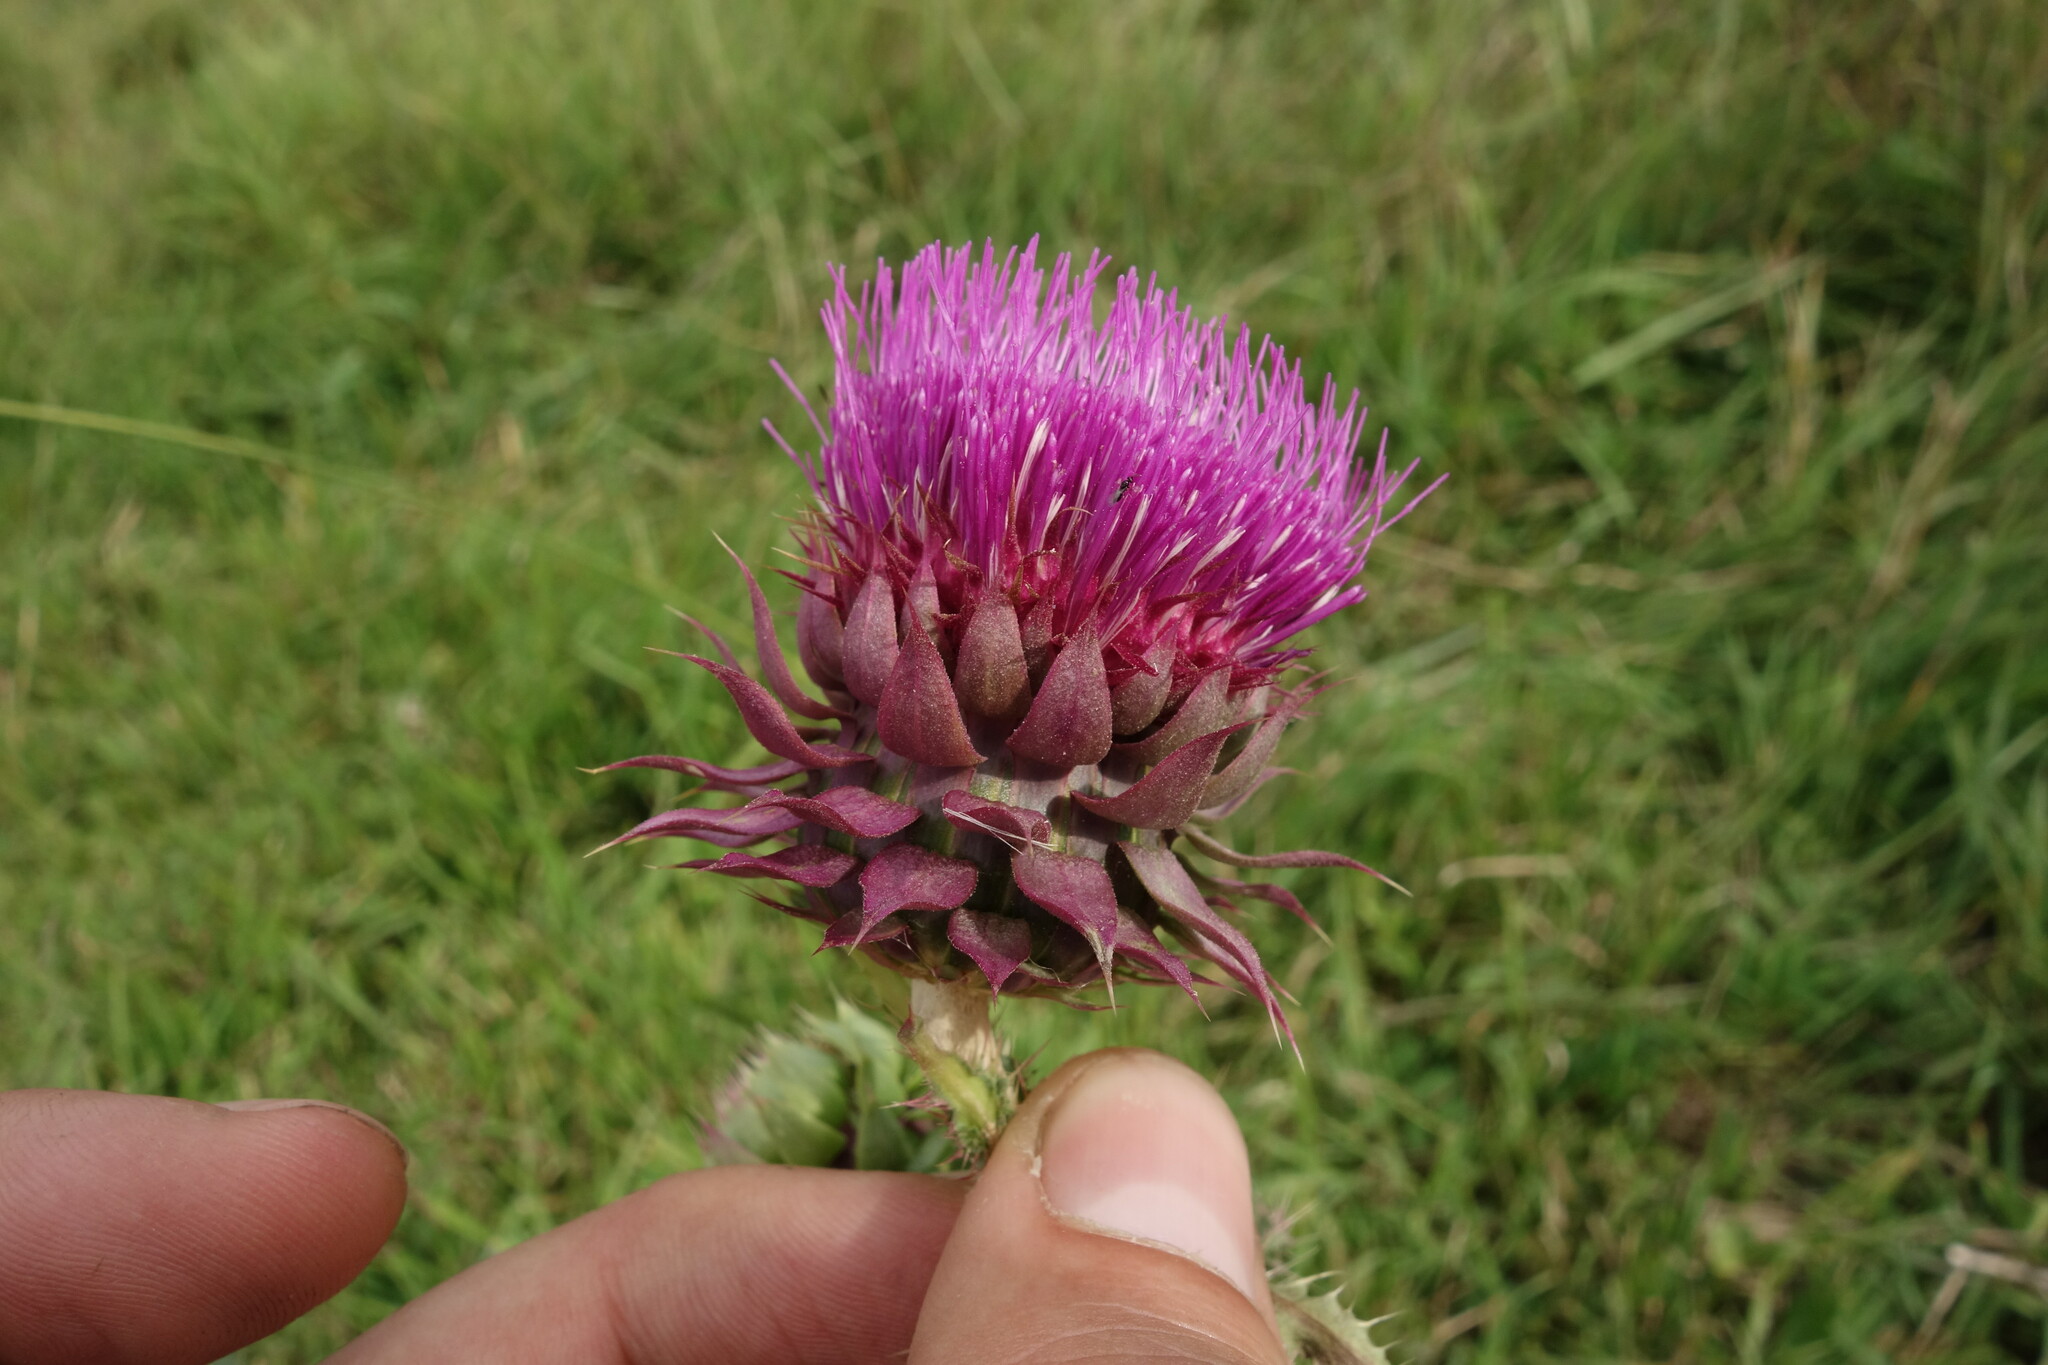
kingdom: Plantae
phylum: Tracheophyta
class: Magnoliopsida
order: Asterales
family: Asteraceae
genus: Carduus
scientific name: Carduus nutans
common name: Musk thistle
